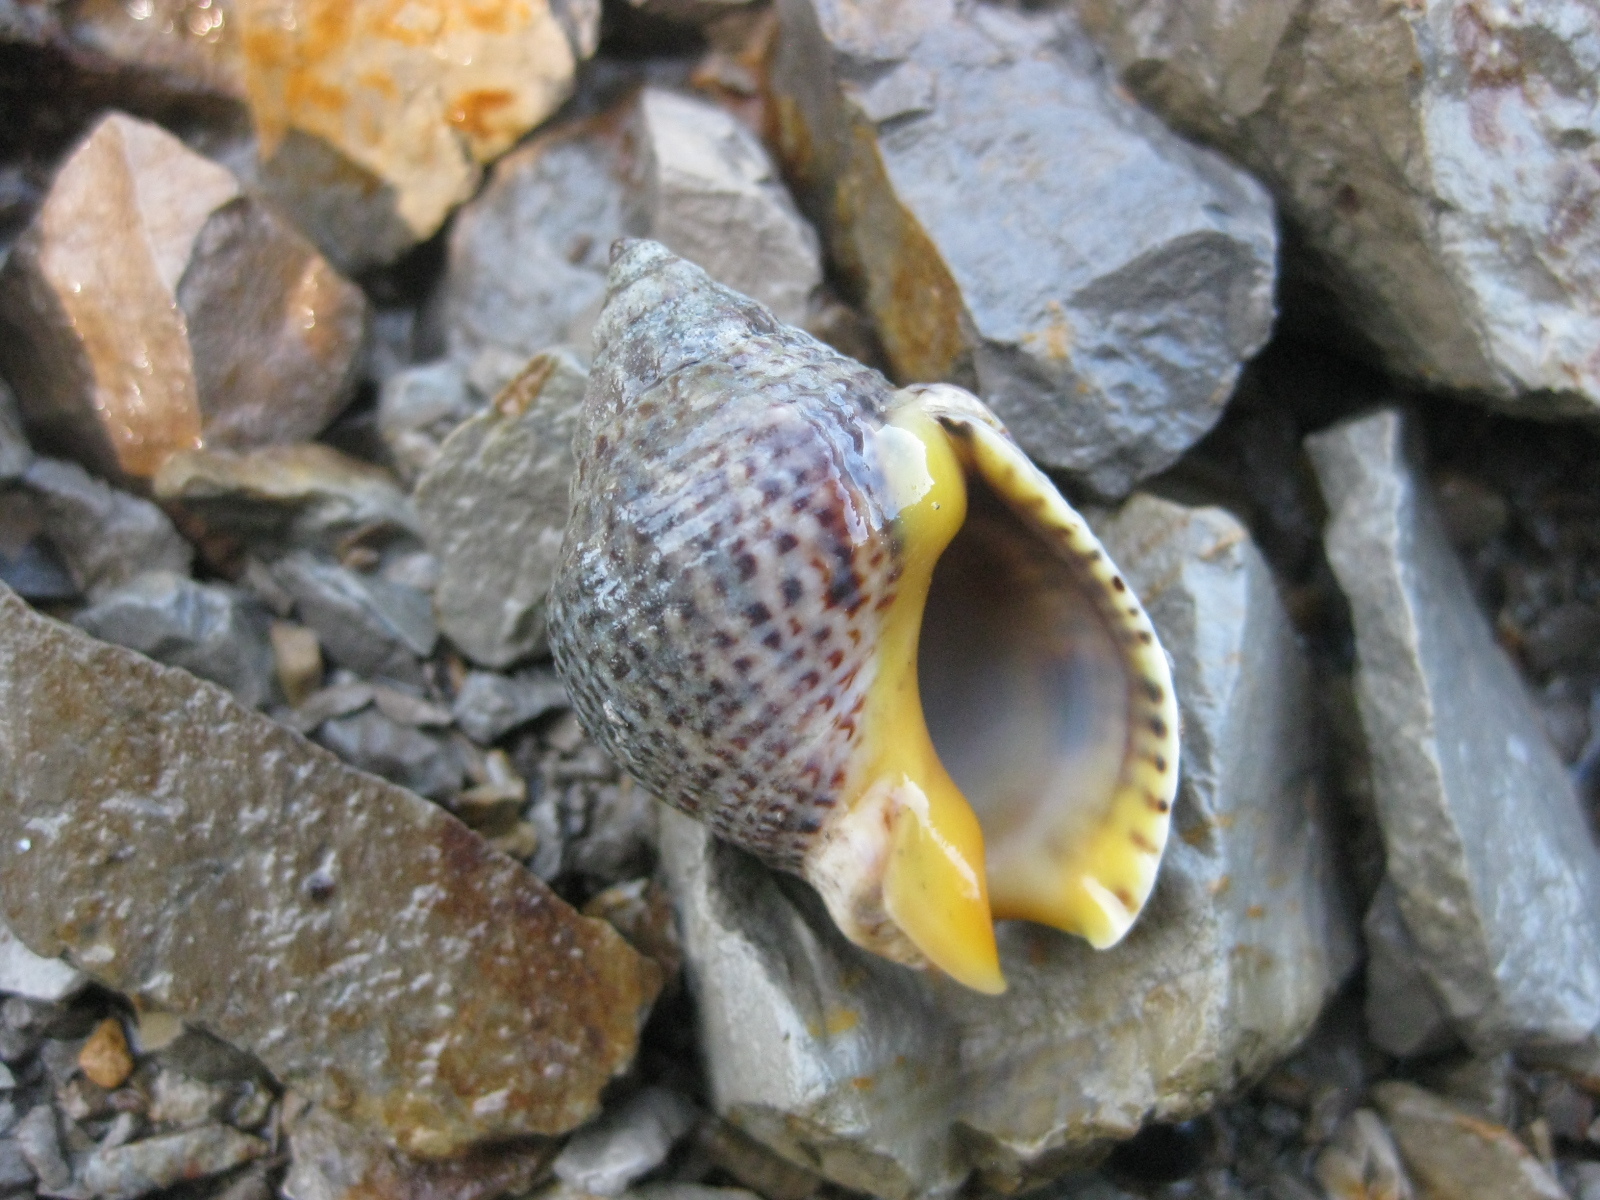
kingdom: Animalia
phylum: Mollusca
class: Gastropoda
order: Neogastropoda
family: Cominellidae
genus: Cominella
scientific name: Cominella adspersa
